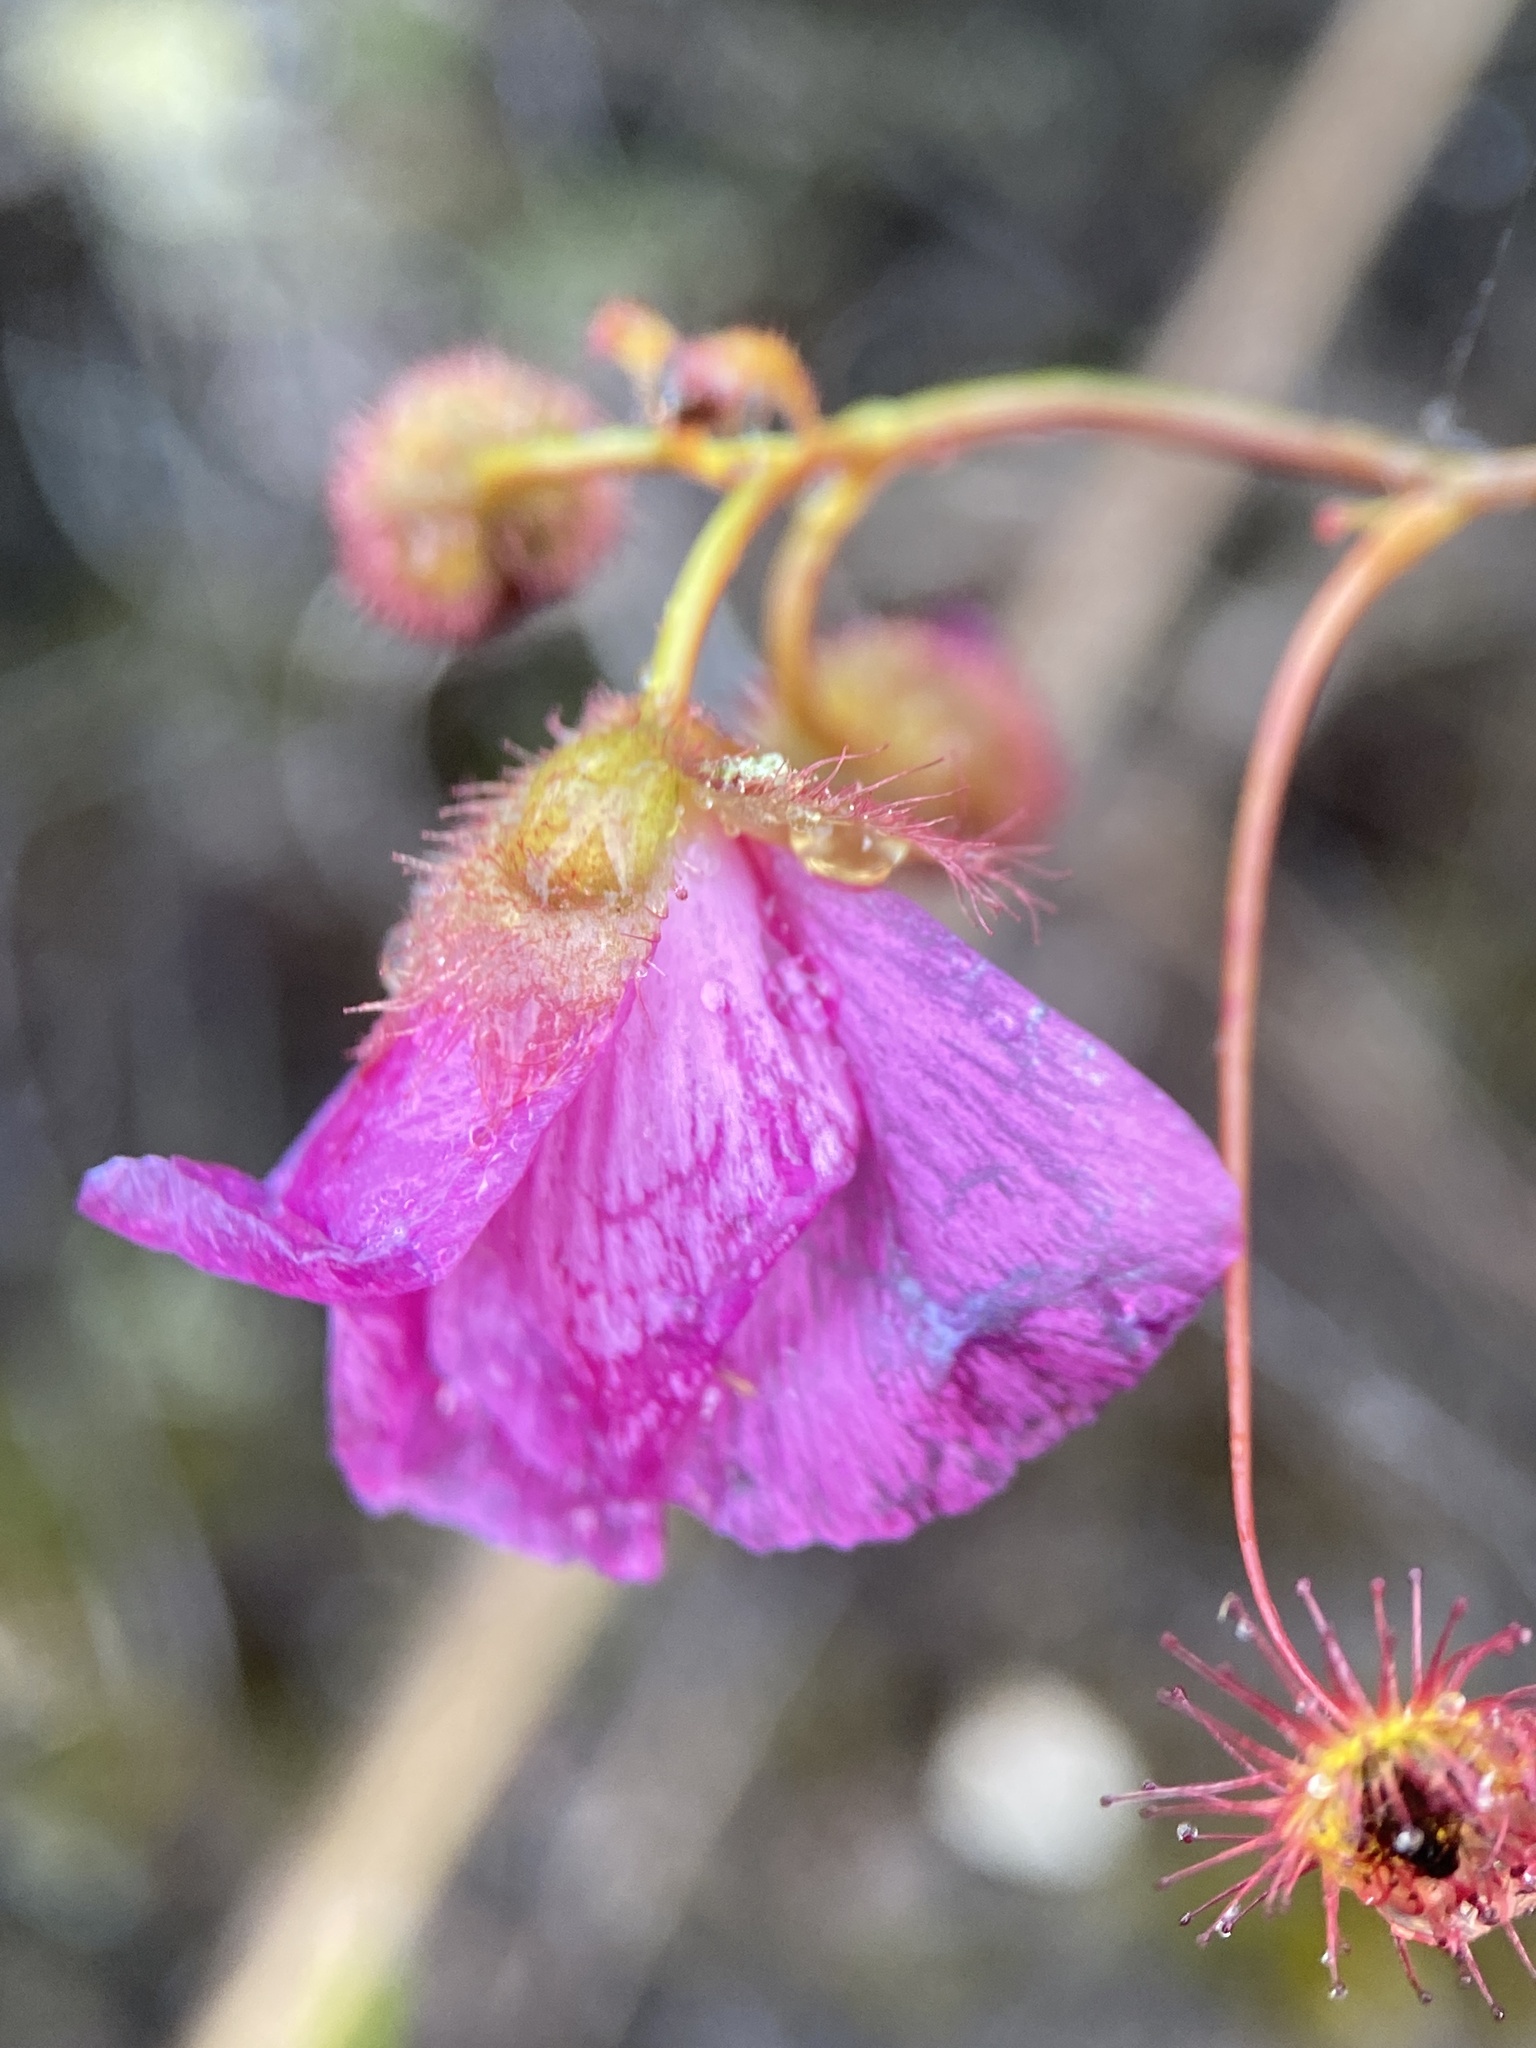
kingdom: Plantae
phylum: Tracheophyta
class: Magnoliopsida
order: Caryophyllales
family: Droseraceae
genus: Drosera
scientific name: Drosera
